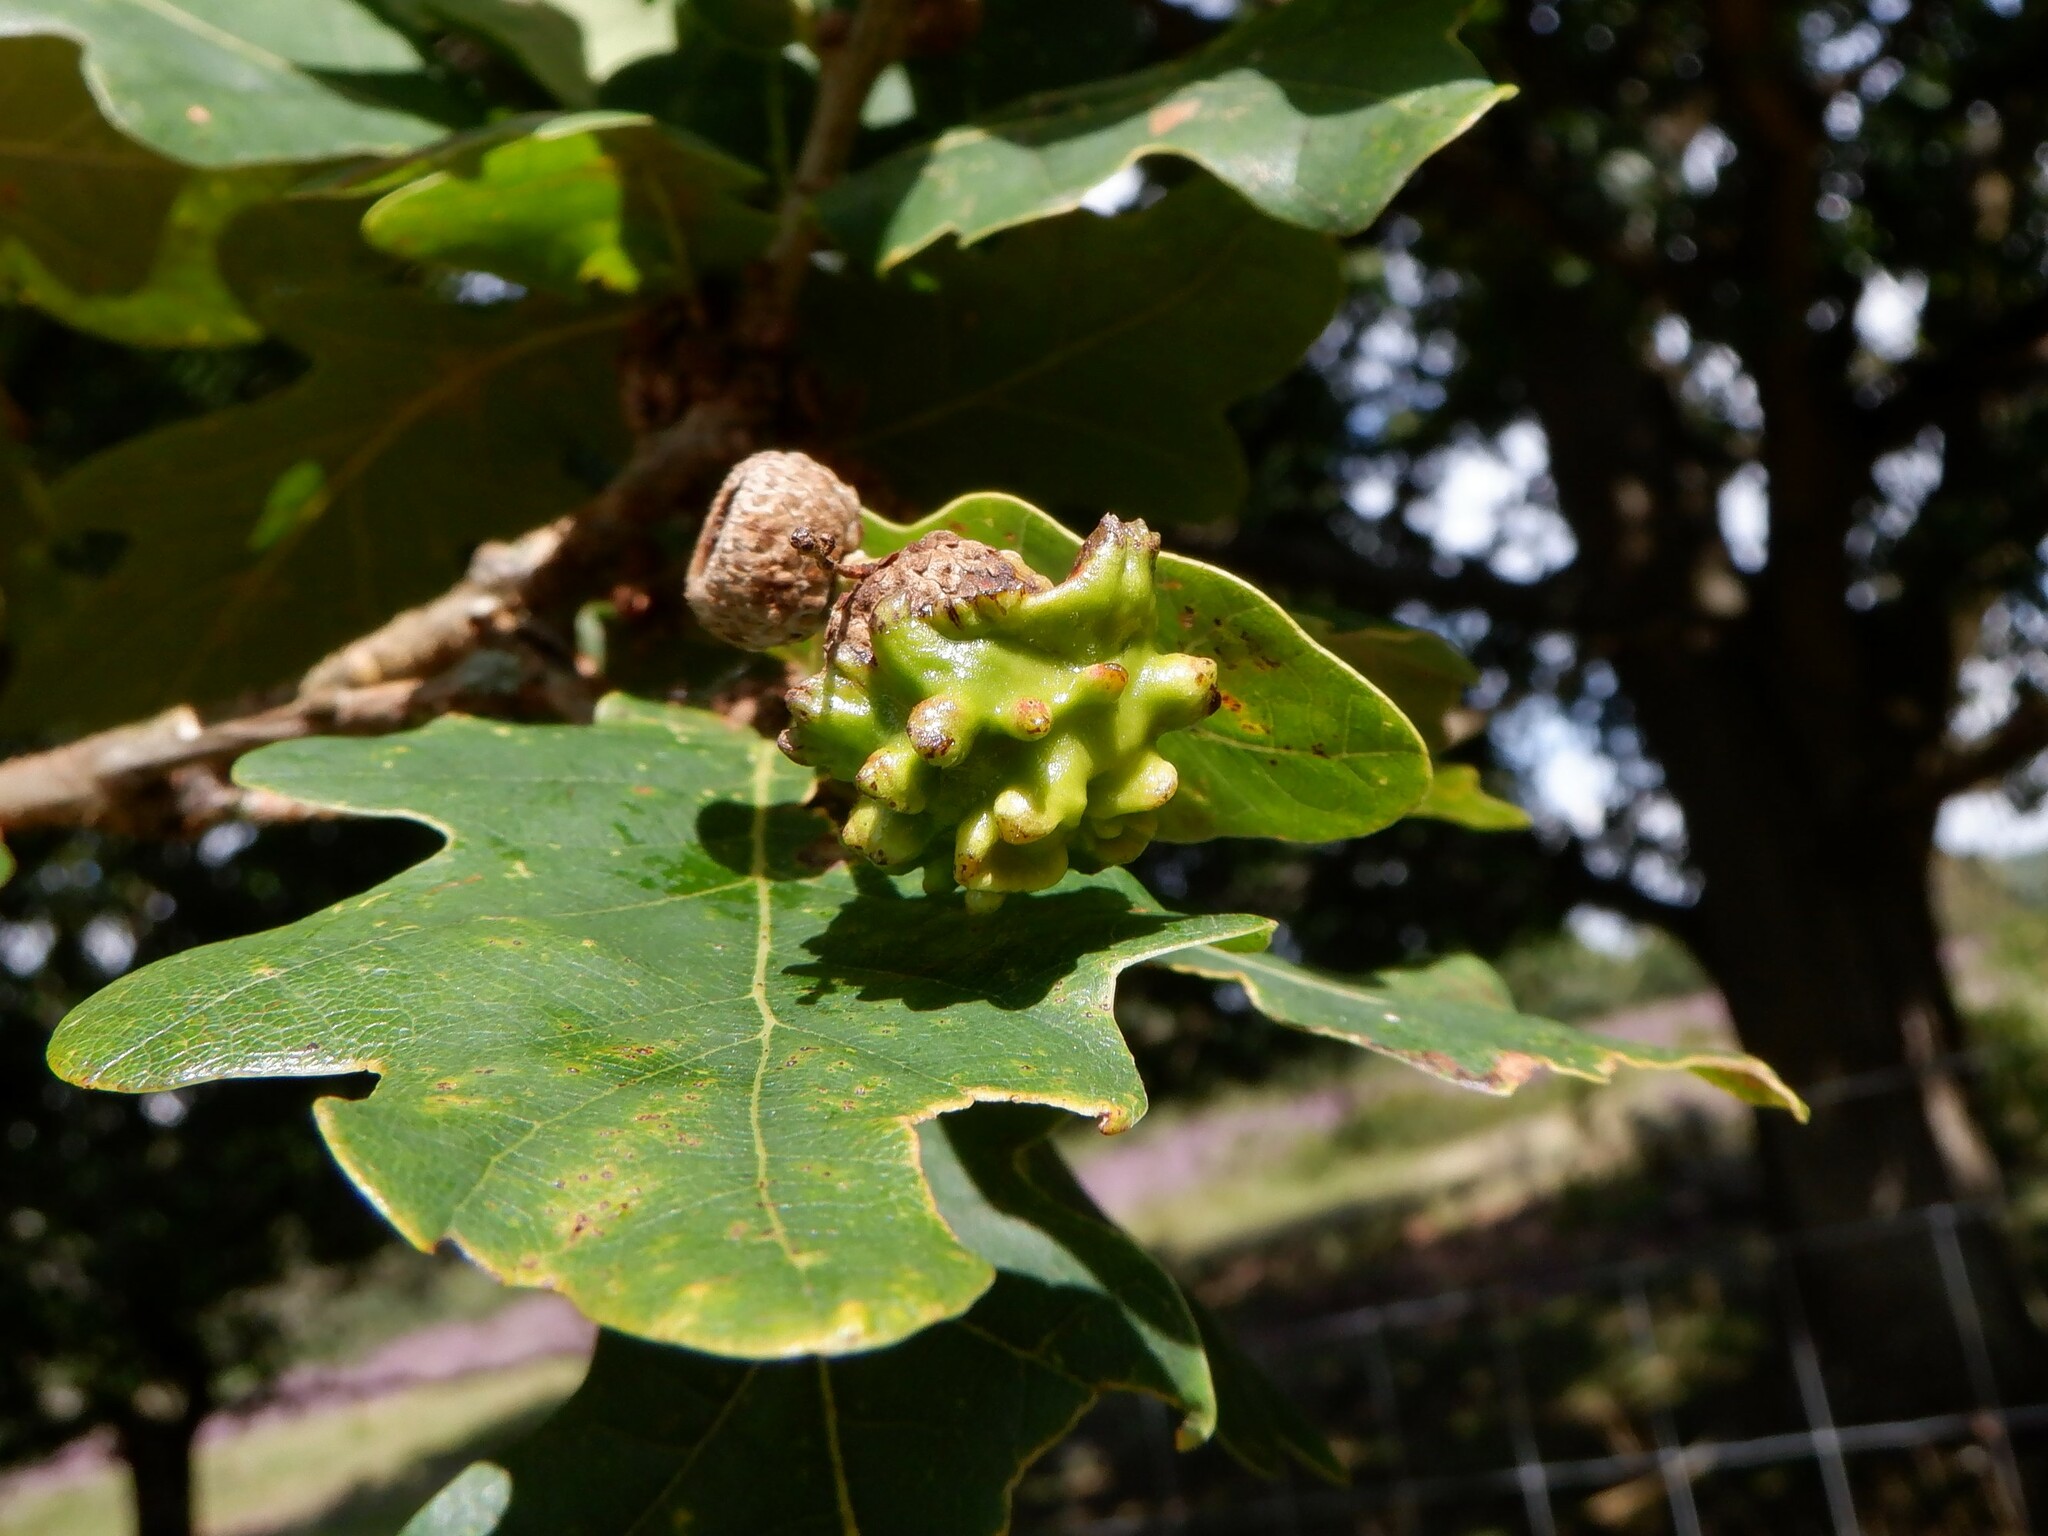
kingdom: Animalia
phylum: Arthropoda
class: Insecta
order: Hymenoptera
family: Cynipidae
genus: Andricus
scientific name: Andricus quercuscalicis
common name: Knopper gall
